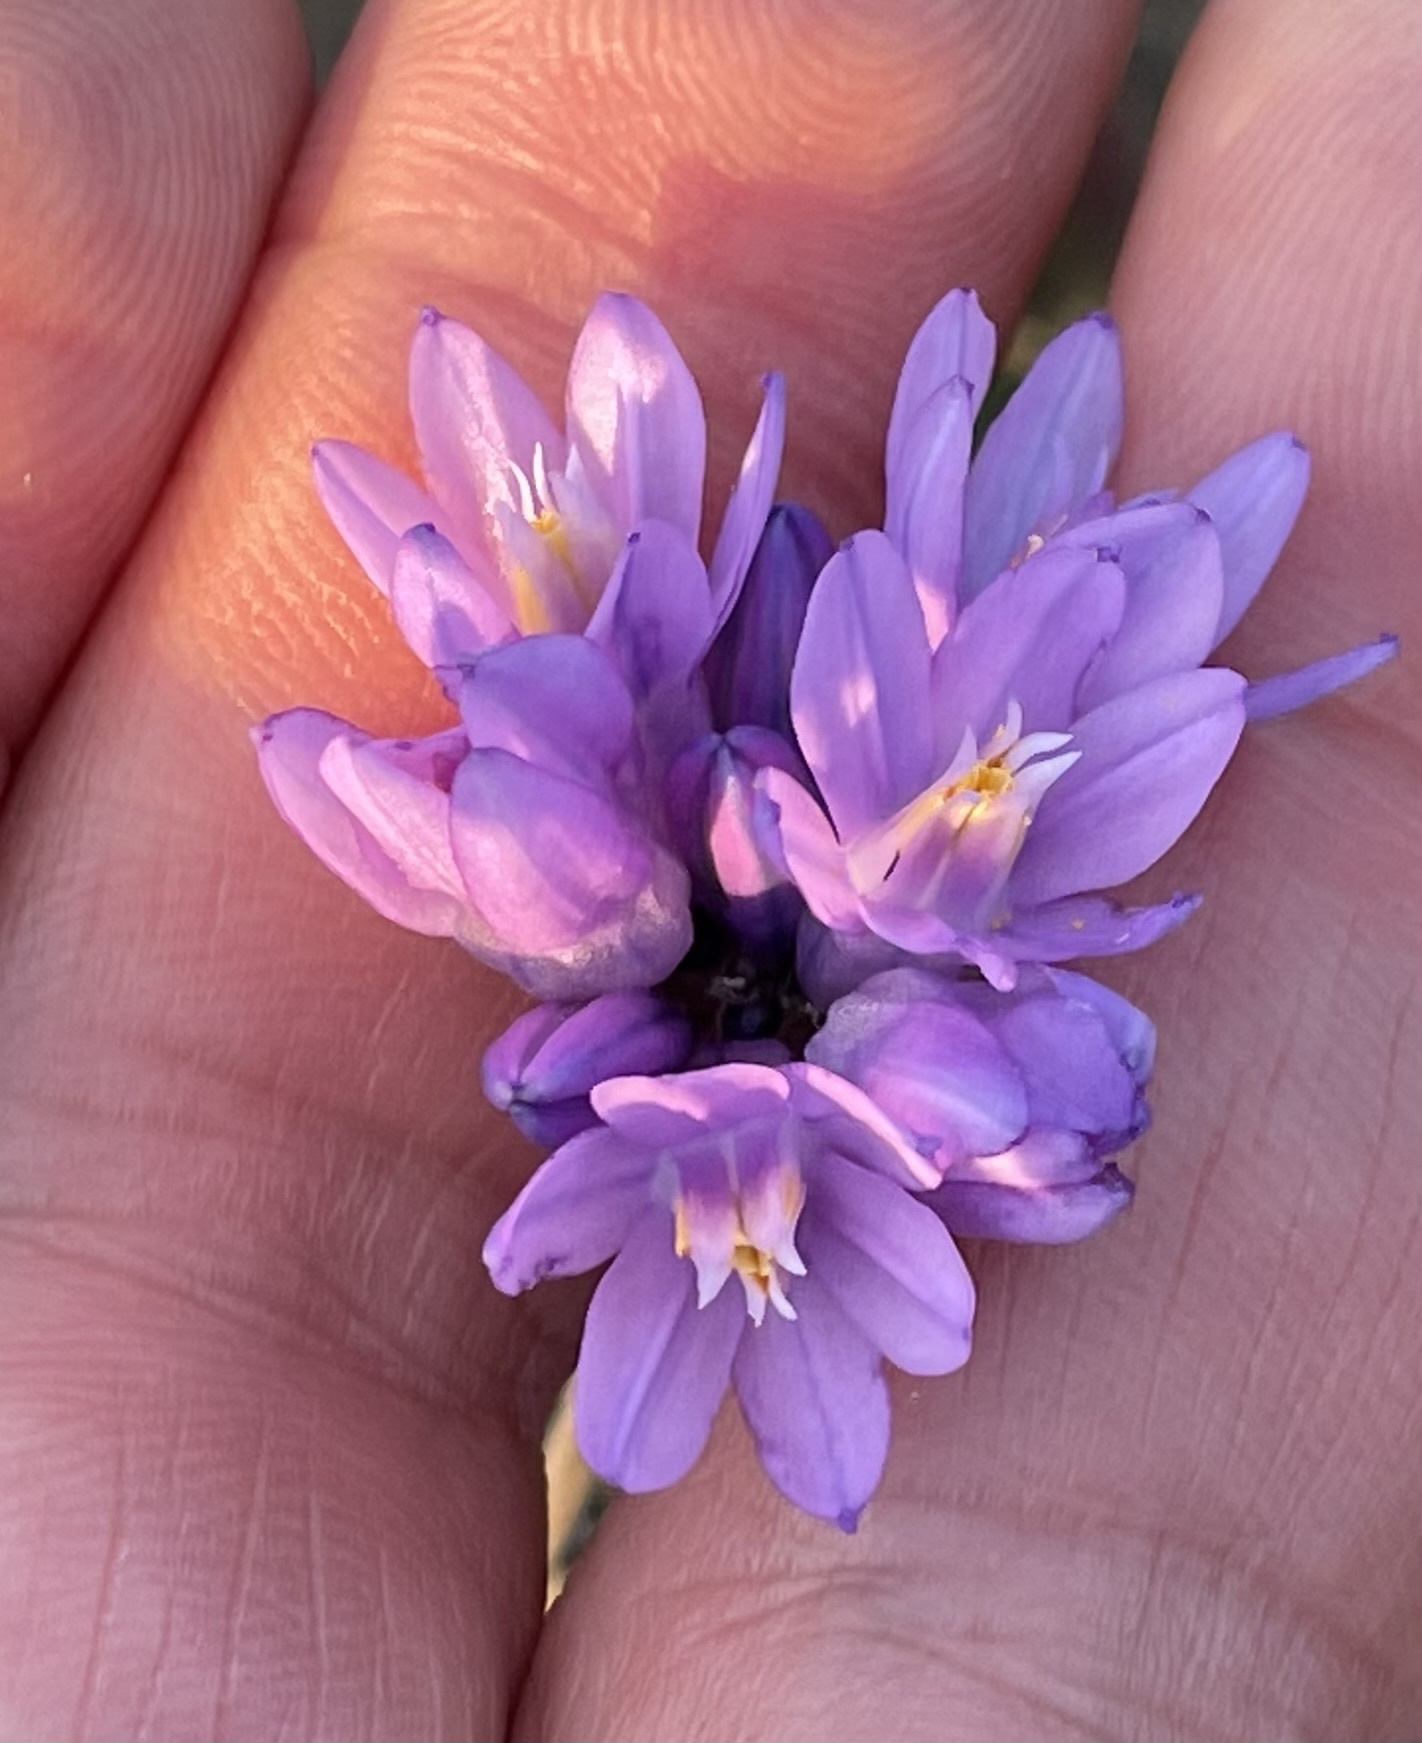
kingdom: Plantae
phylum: Tracheophyta
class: Liliopsida
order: Asparagales
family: Asparagaceae
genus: Dipterostemon
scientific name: Dipterostemon capitatus
